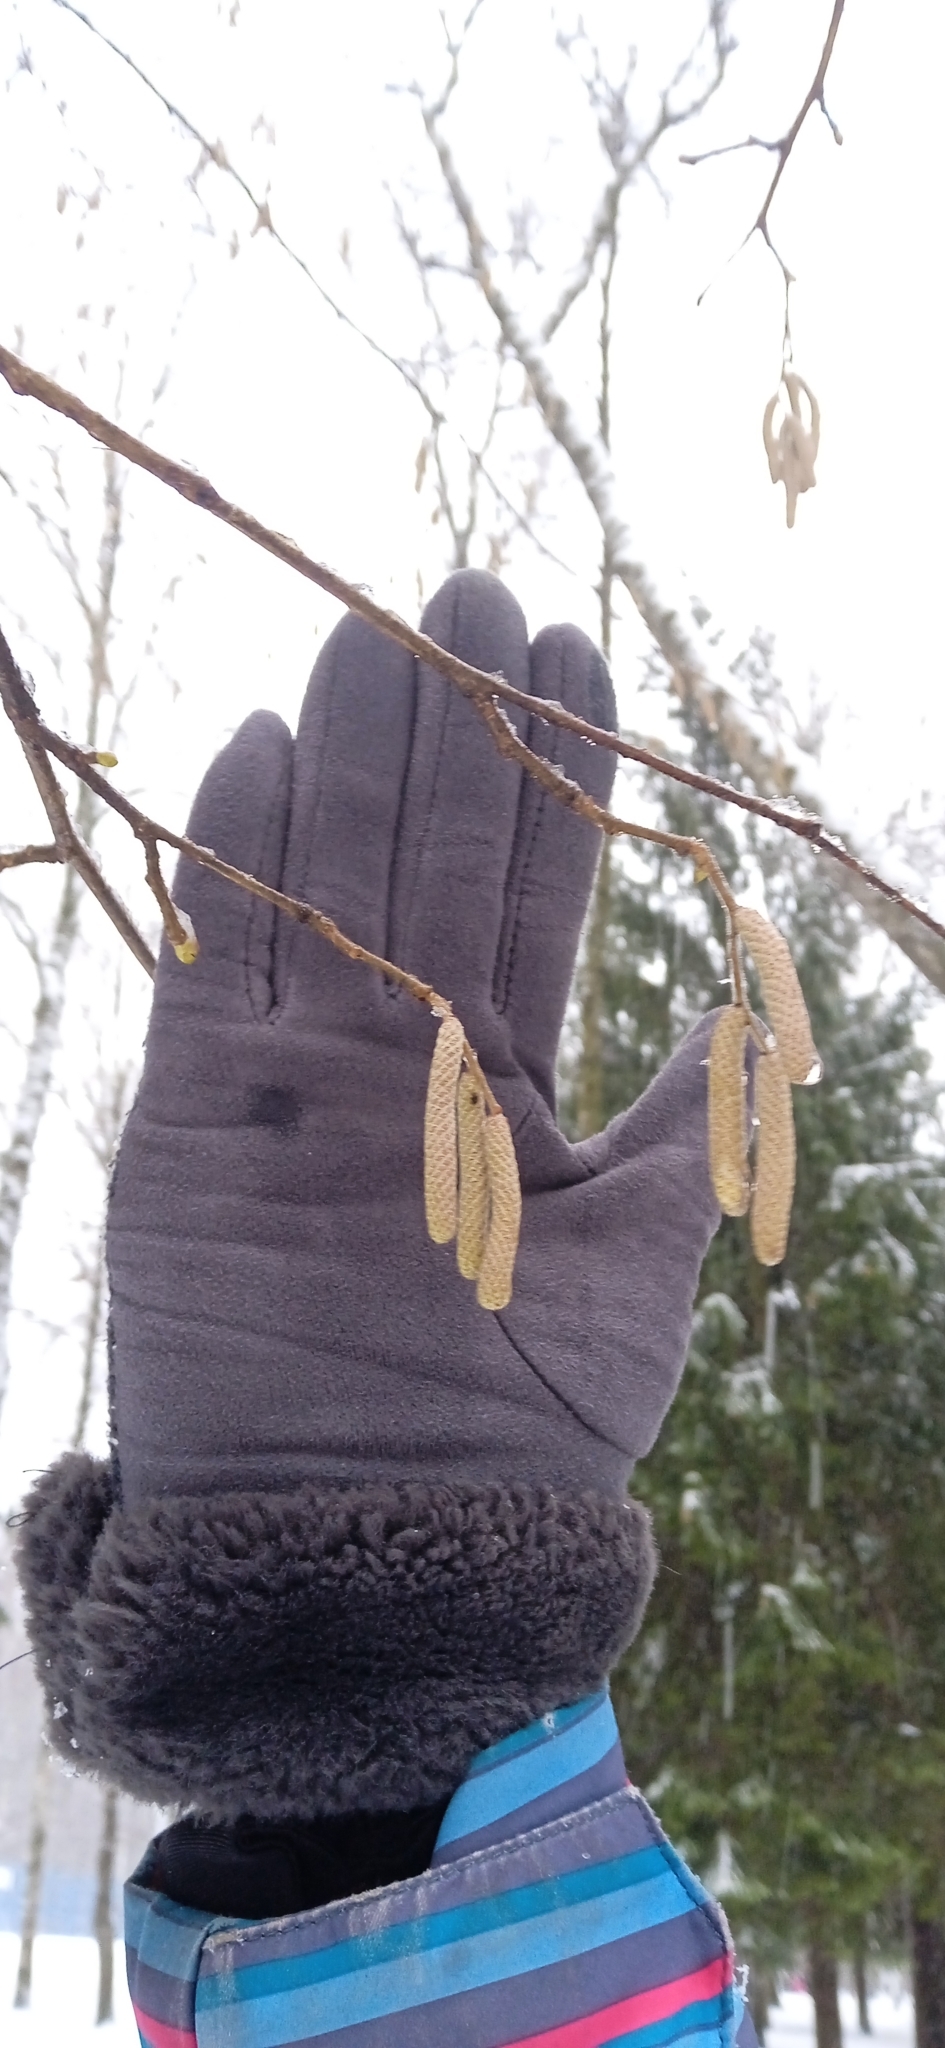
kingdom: Plantae
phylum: Tracheophyta
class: Magnoliopsida
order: Fagales
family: Betulaceae
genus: Corylus
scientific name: Corylus avellana
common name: European hazel
